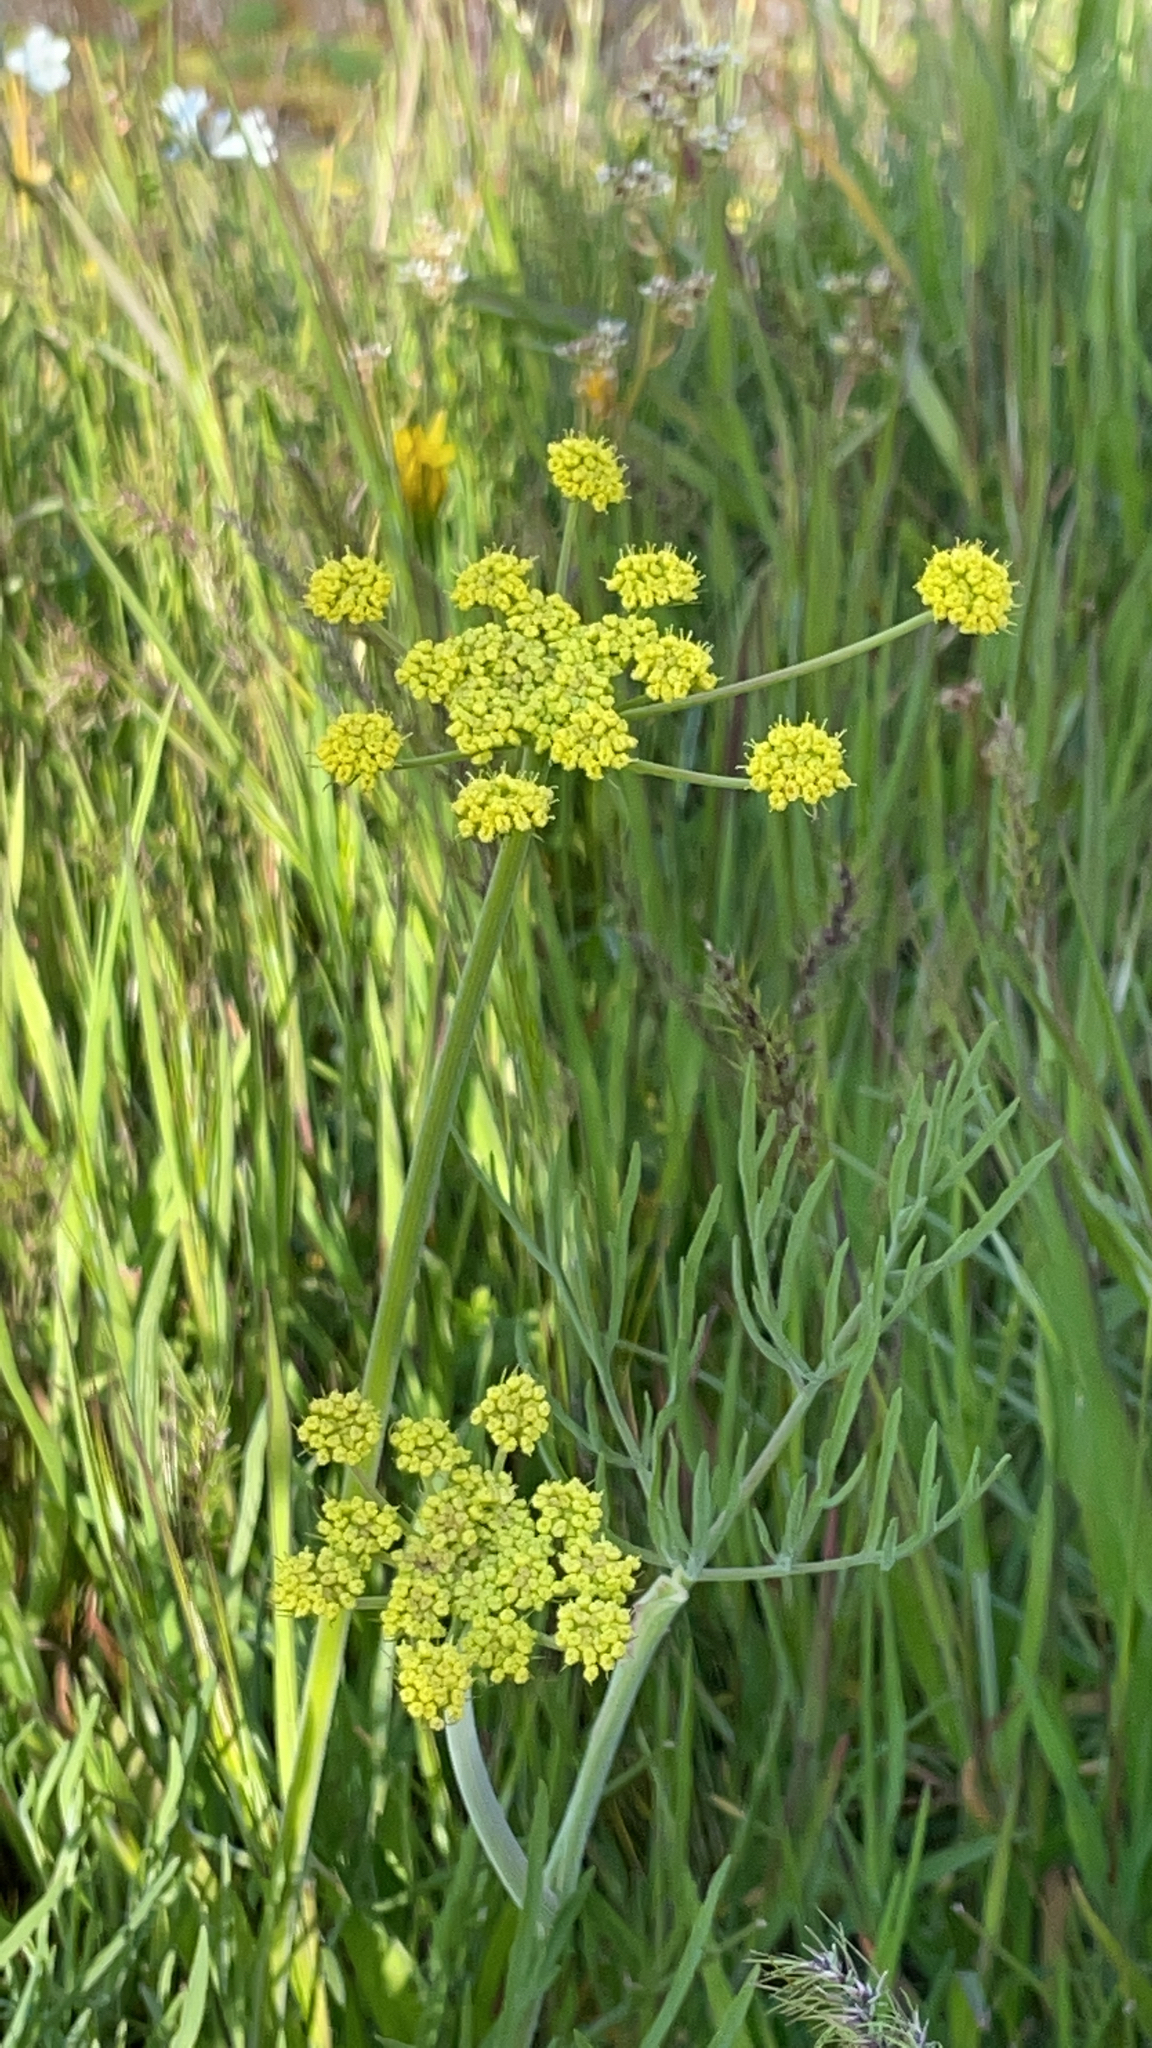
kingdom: Plantae
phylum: Tracheophyta
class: Magnoliopsida
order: Apiales
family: Apiaceae
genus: Lomatium
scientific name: Lomatium triternatum
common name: Ternate lomatium
